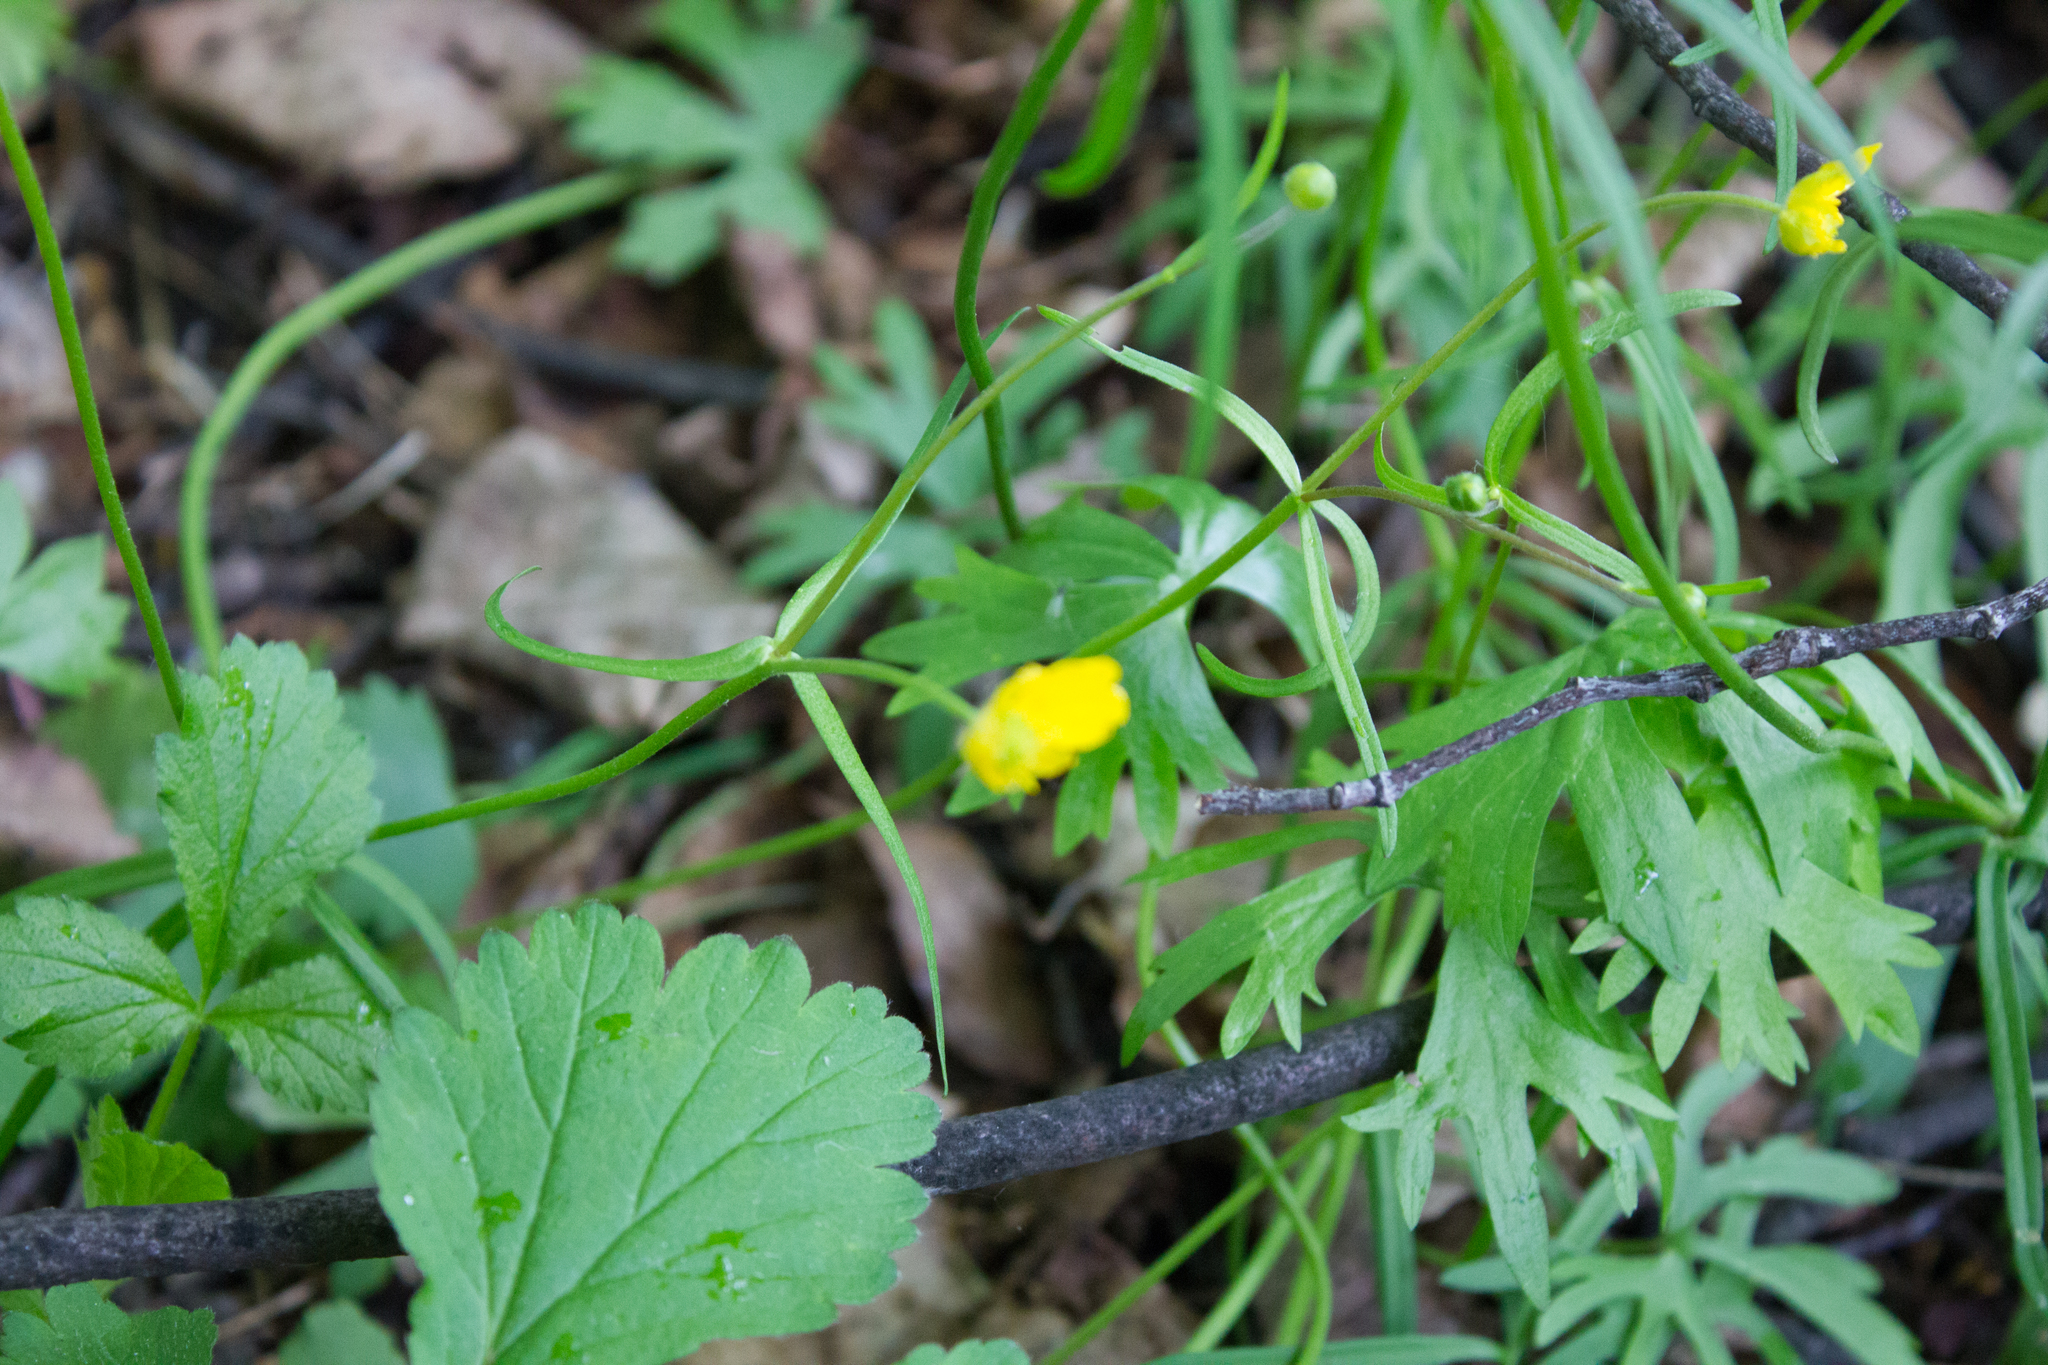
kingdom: Plantae
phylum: Tracheophyta
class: Magnoliopsida
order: Ranunculales
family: Ranunculaceae
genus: Ranunculus
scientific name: Ranunculus auricomus
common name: Goldilocks buttercup
